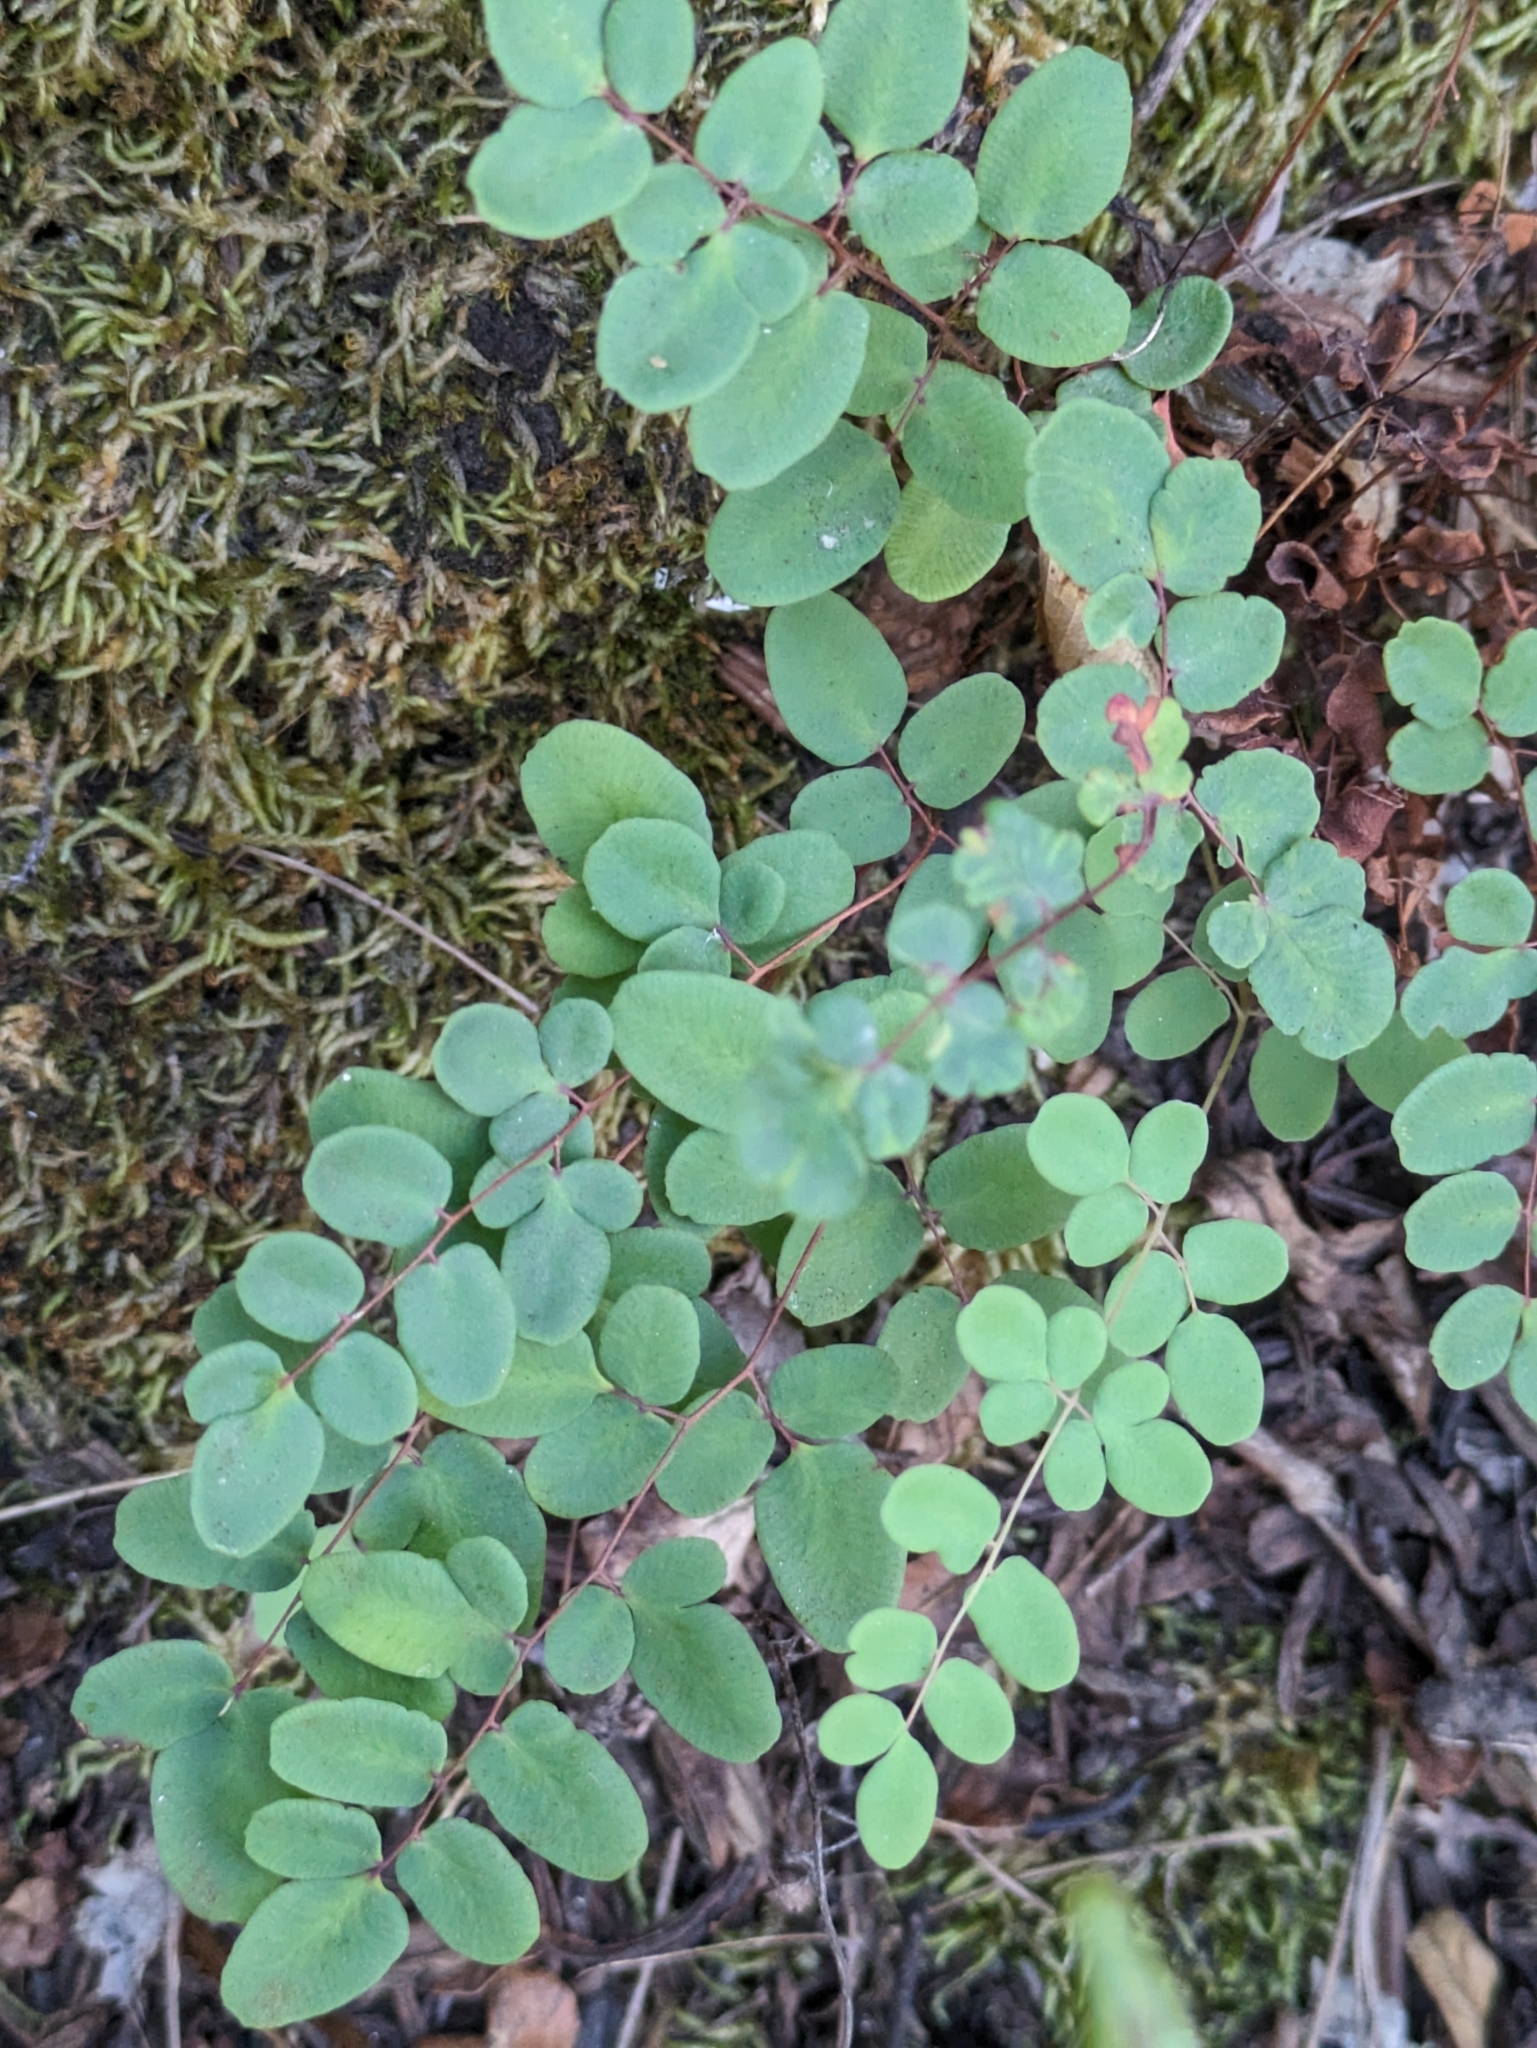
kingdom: Plantae
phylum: Tracheophyta
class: Polypodiopsida
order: Polypodiales
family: Pteridaceae
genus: Pellaea
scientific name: Pellaea andromedifolia
